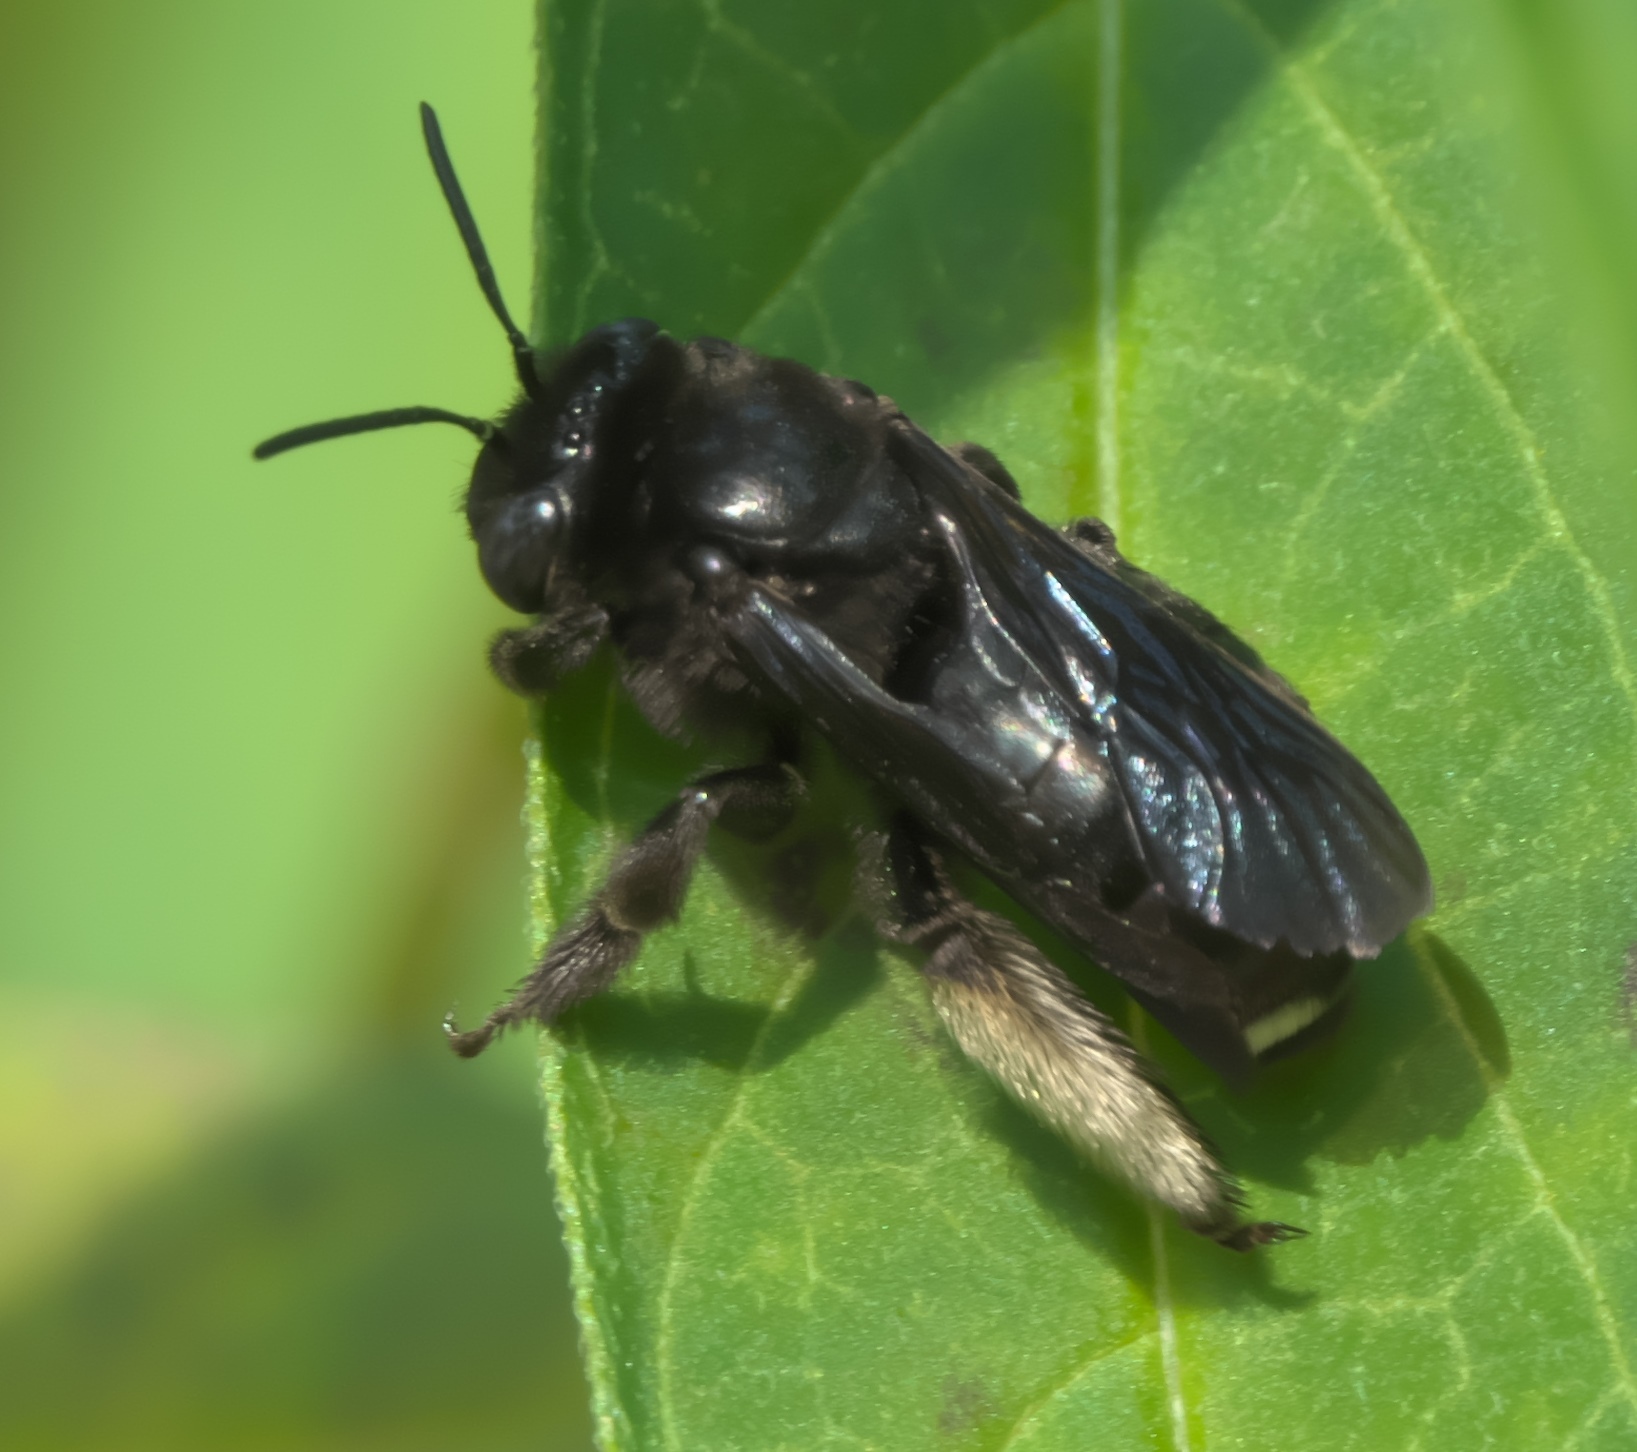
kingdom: Animalia
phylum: Arthropoda
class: Insecta
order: Hymenoptera
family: Apidae
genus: Melissodes
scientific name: Melissodes bimaculatus
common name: Two-spotted long-horned bee
